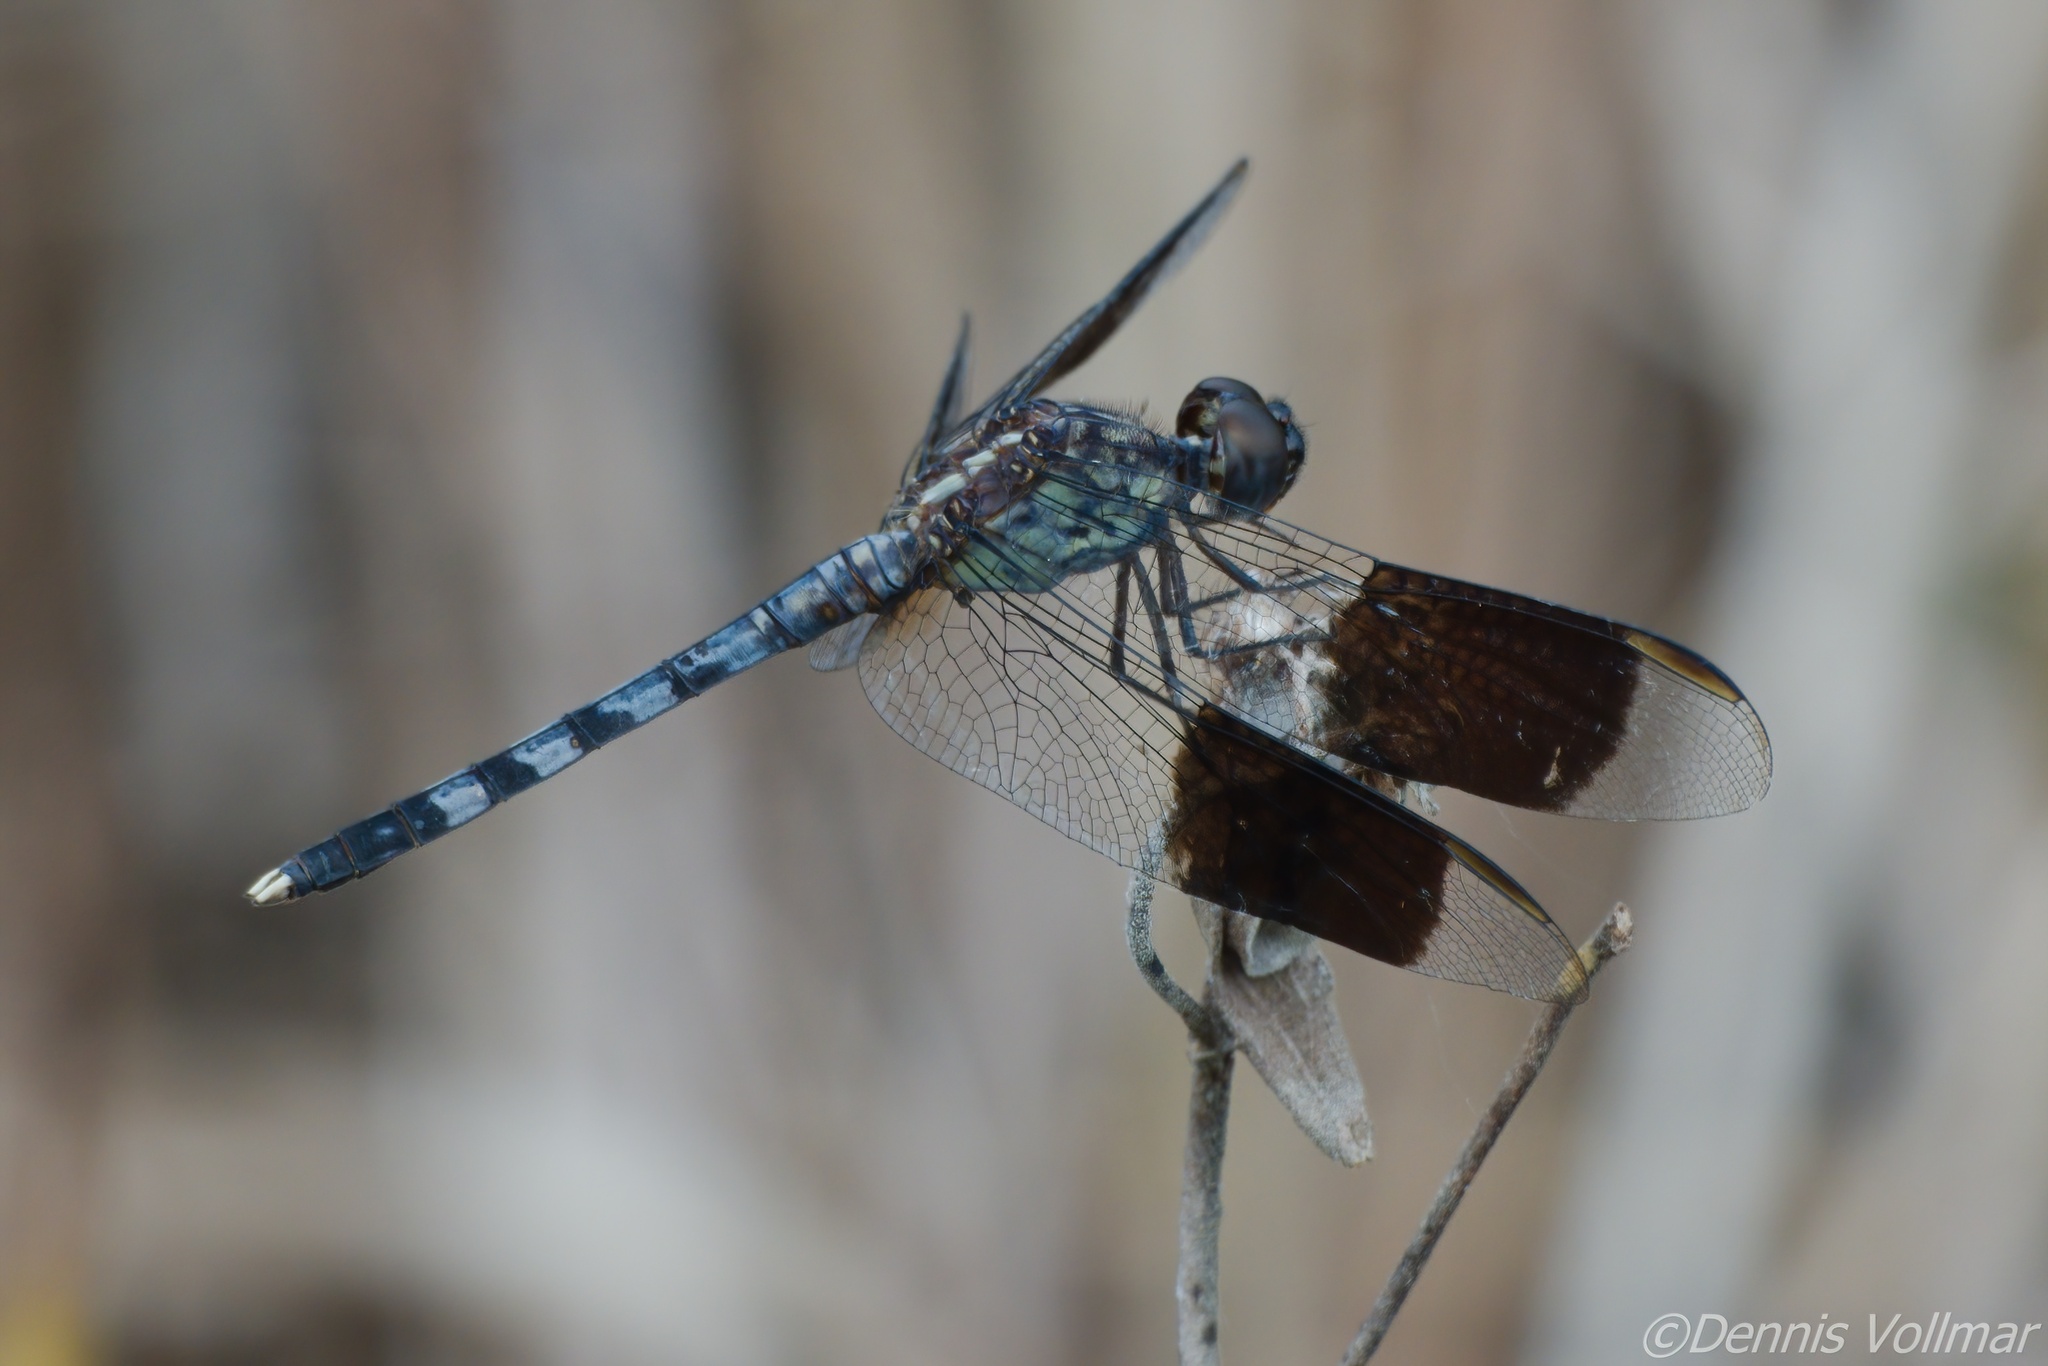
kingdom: Animalia
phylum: Arthropoda
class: Insecta
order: Odonata
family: Libellulidae
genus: Erythrodiplax
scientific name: Erythrodiplax umbrata
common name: Band-winged dragonlet
